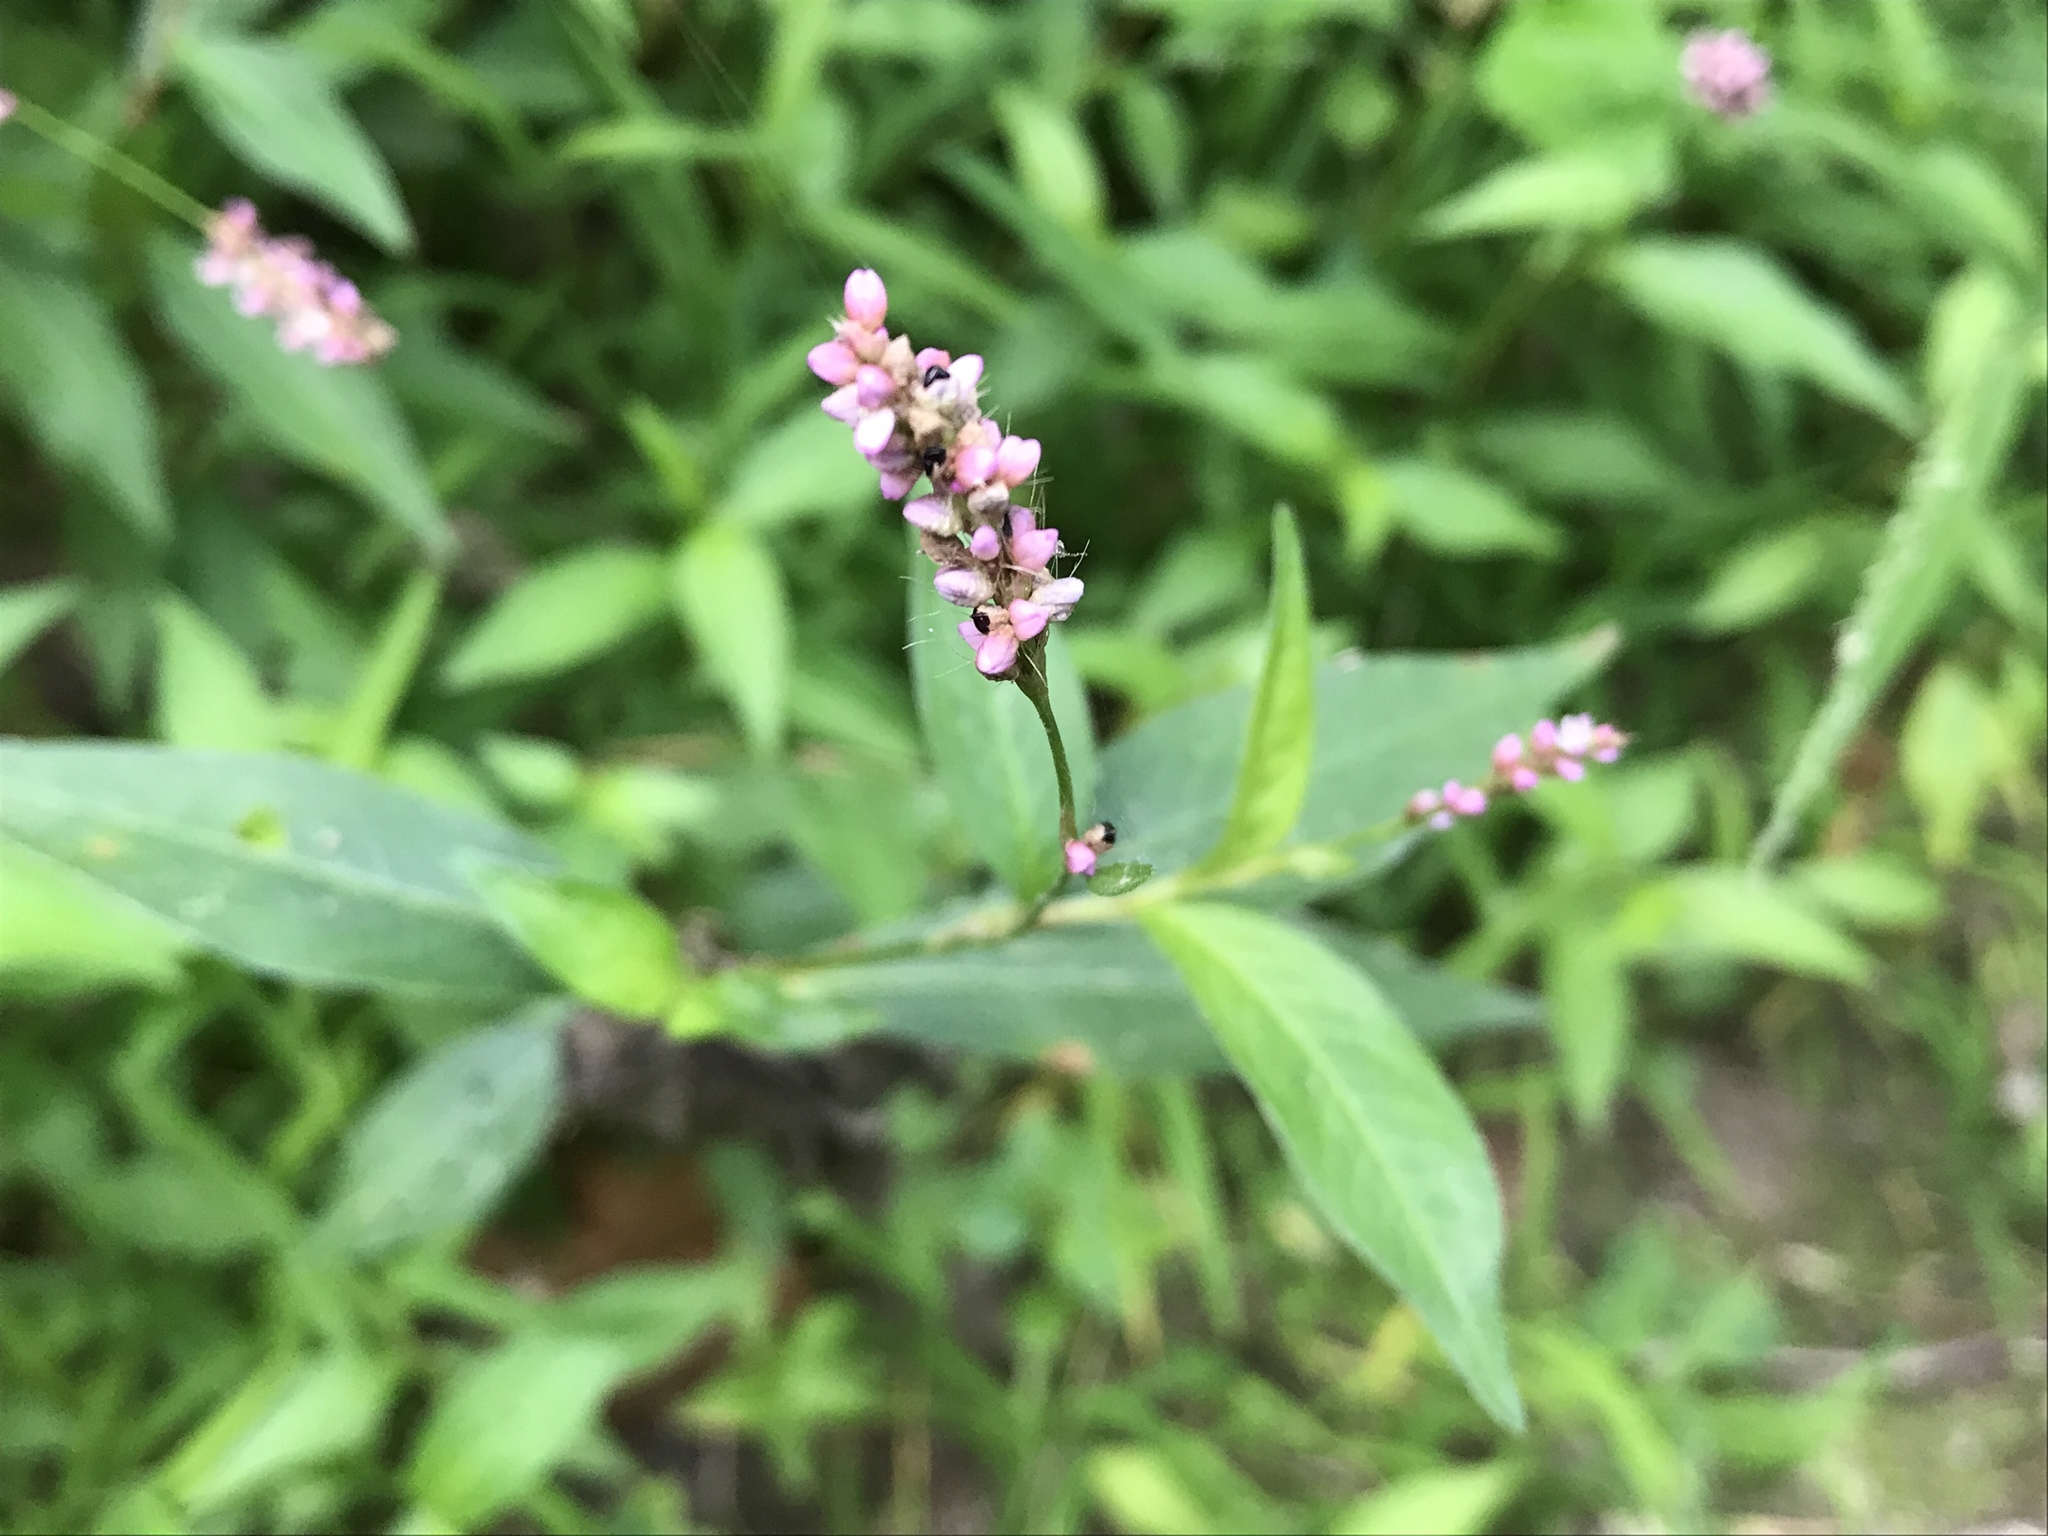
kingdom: Plantae
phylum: Tracheophyta
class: Magnoliopsida
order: Caryophyllales
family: Polygonaceae
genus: Persicaria
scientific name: Persicaria longiseta
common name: Bristly lady's-thumb
